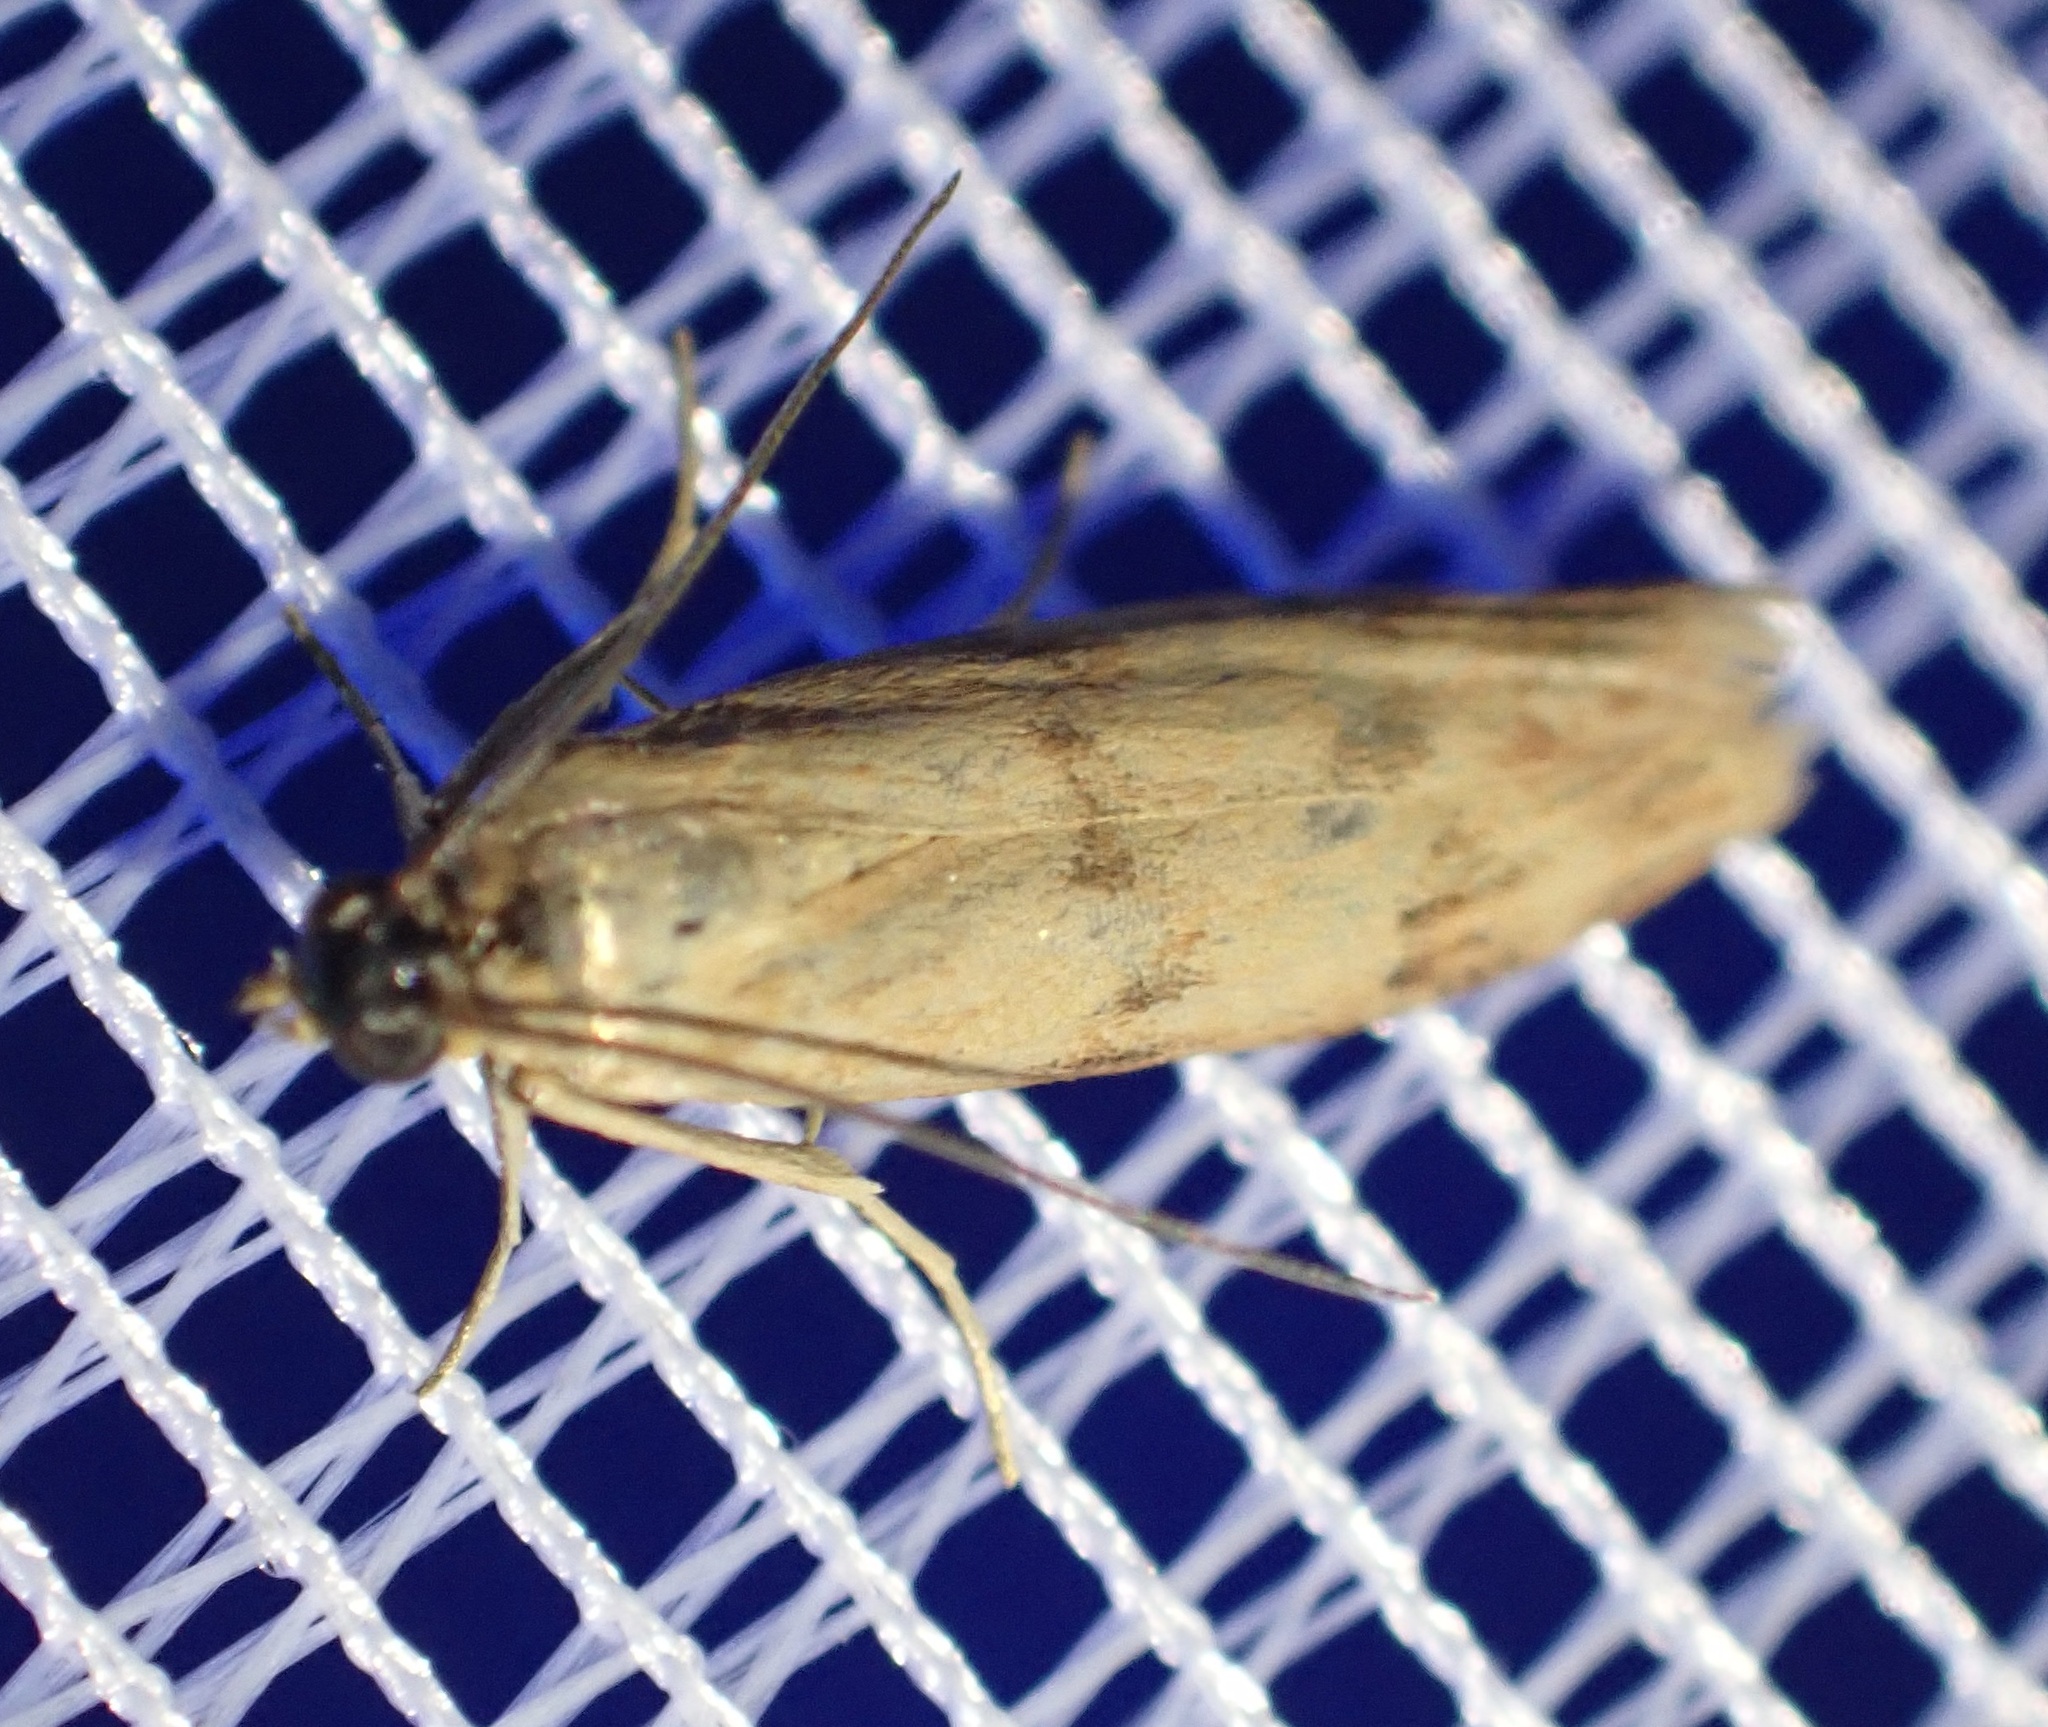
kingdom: Animalia
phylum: Arthropoda
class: Insecta
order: Lepidoptera
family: Pyralidae
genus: Homoeosoma
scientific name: Homoeosoma sinuella
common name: Twin-barred knot-horn
